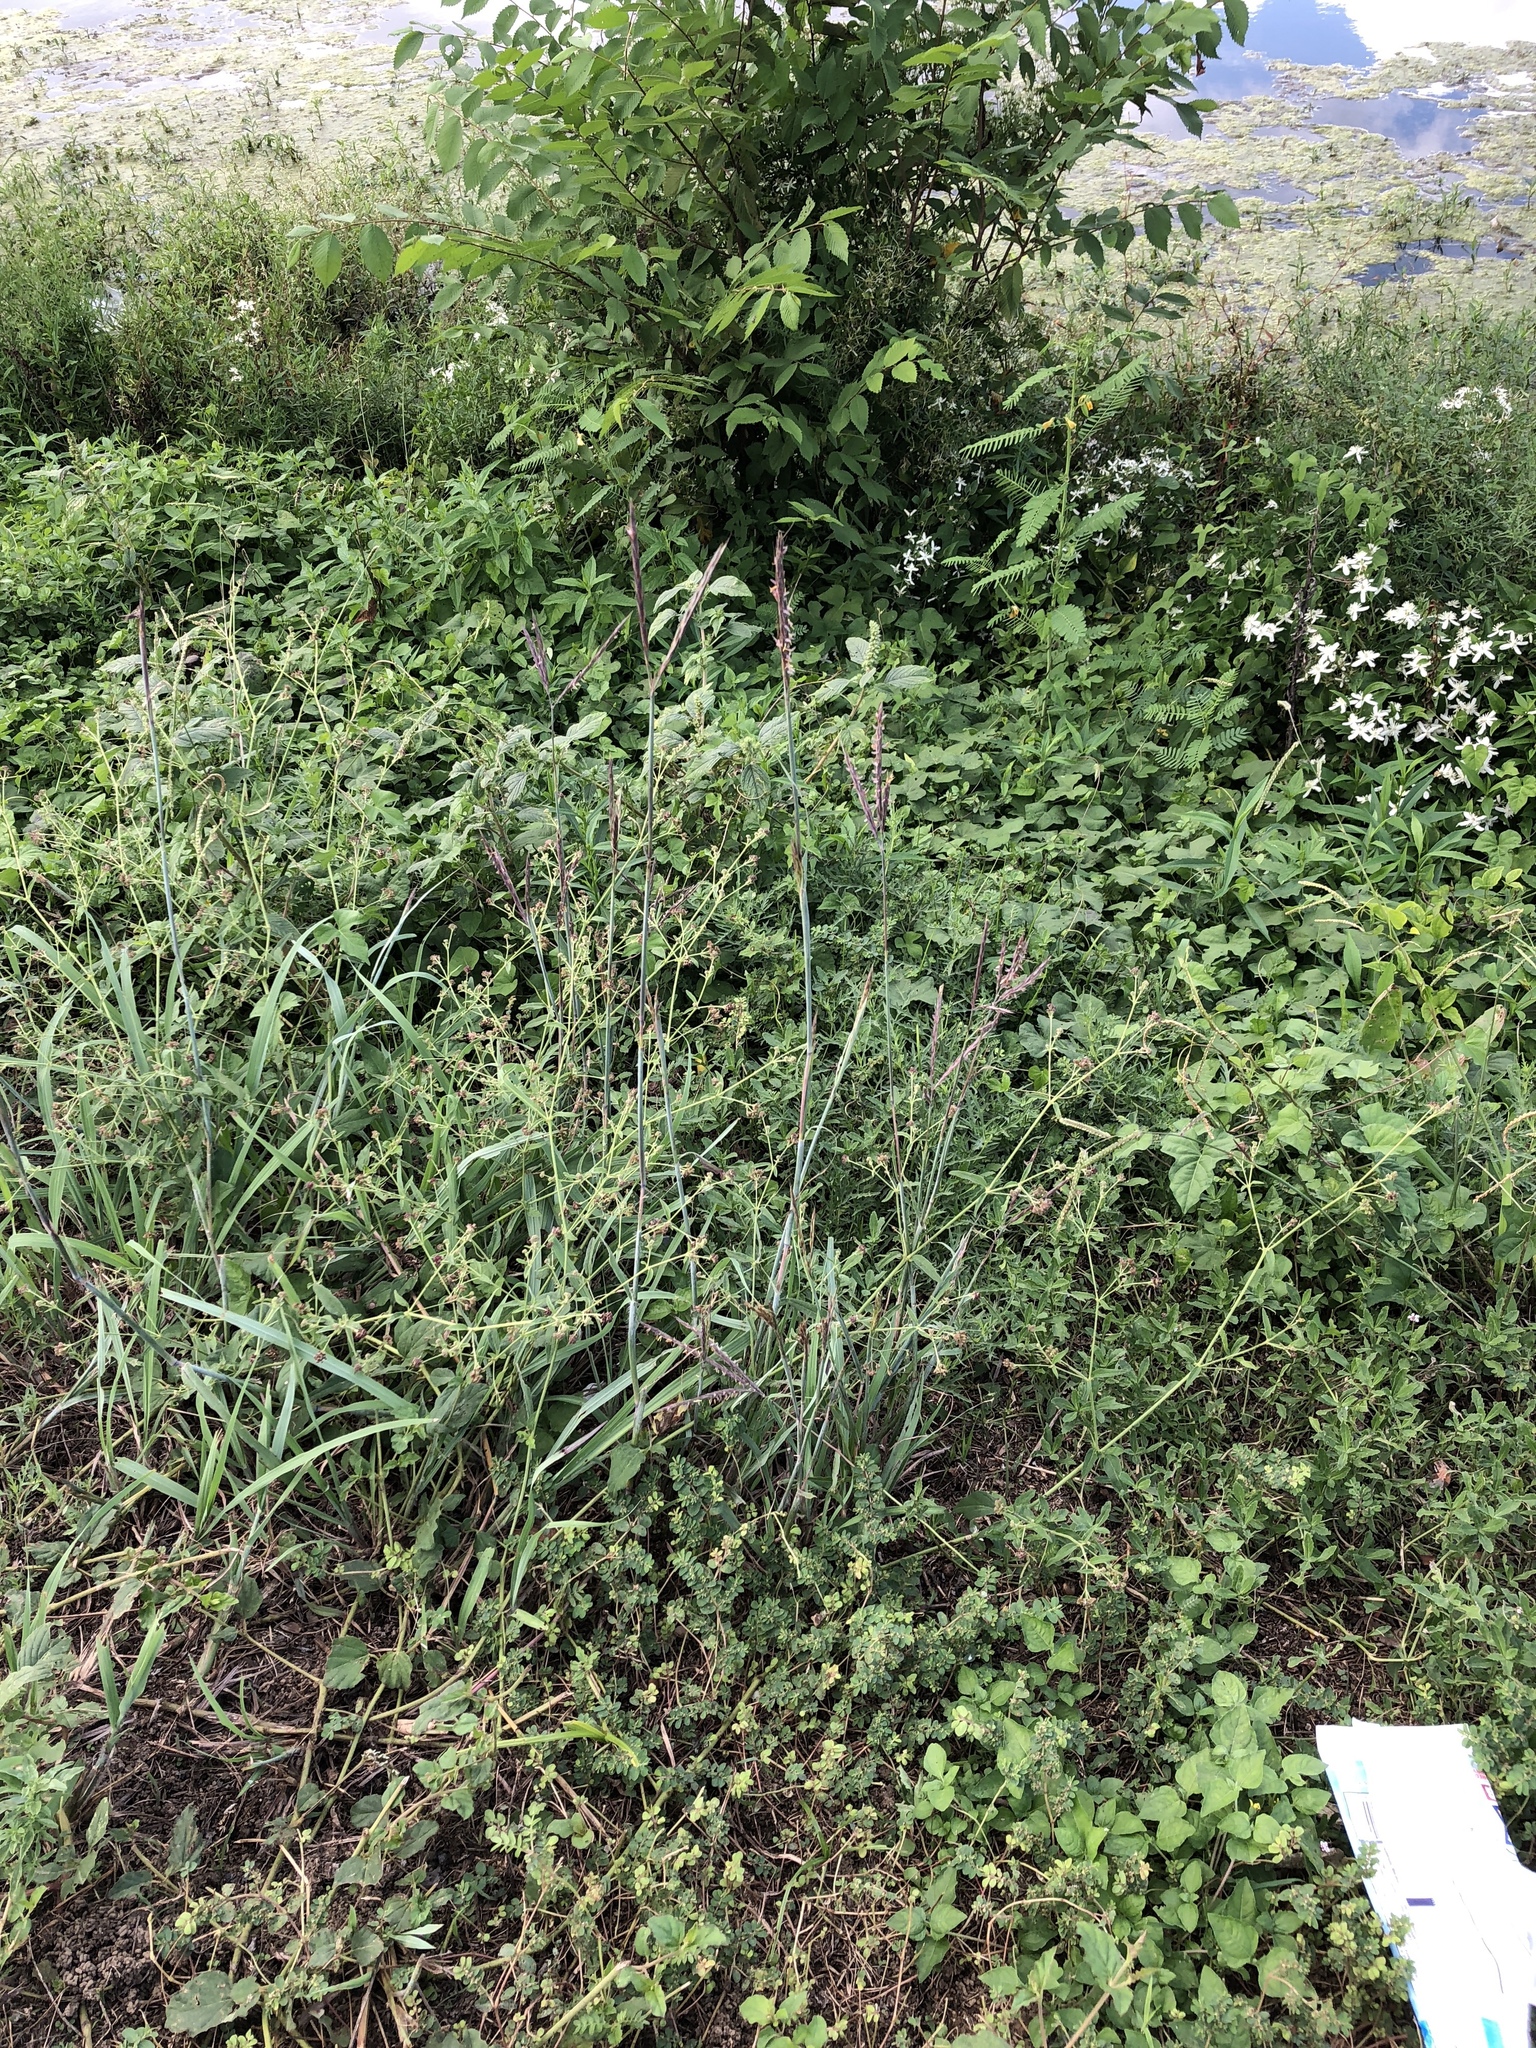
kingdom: Plantae
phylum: Tracheophyta
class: Liliopsida
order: Poales
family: Poaceae
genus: Andropogon
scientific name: Andropogon gerardi
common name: Big bluestem
